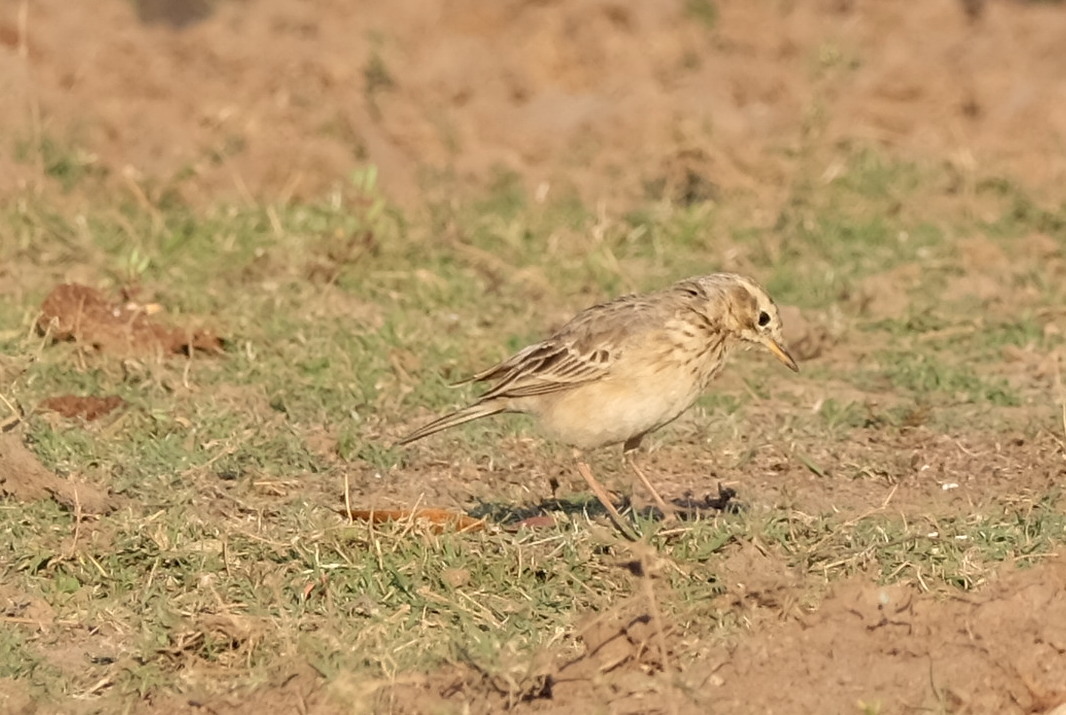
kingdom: Animalia
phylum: Chordata
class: Aves
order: Passeriformes
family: Motacillidae
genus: Anthus
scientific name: Anthus cinnamomeus
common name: African pipit
